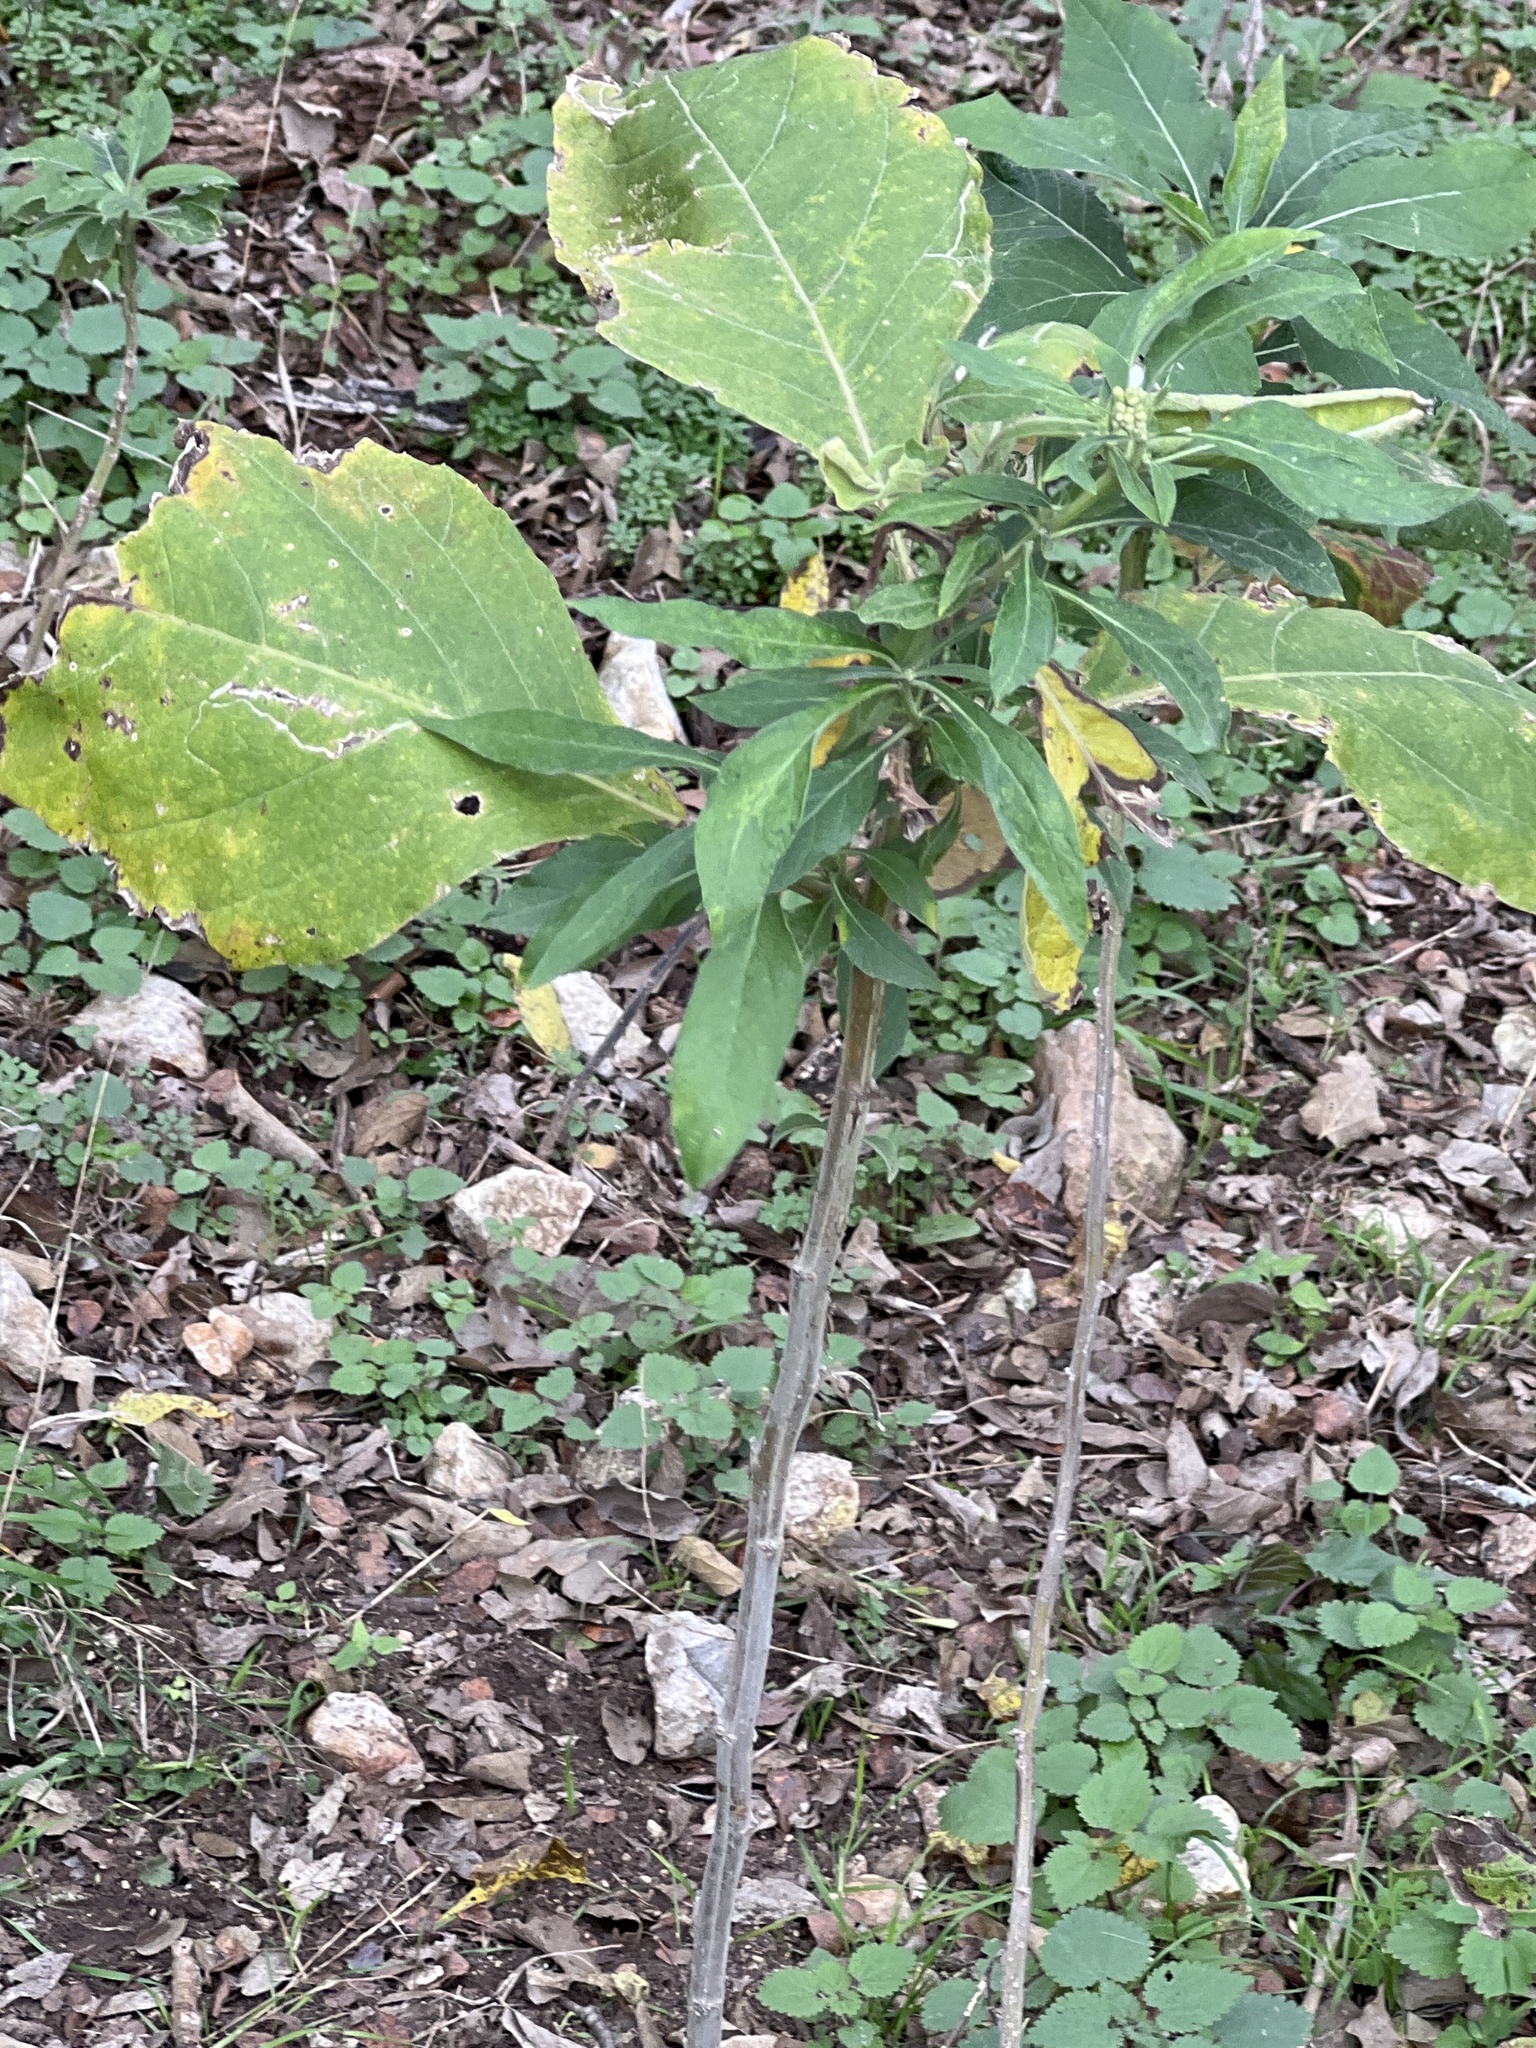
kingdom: Plantae
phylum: Tracheophyta
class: Magnoliopsida
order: Asterales
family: Asteraceae
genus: Verbesina
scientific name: Verbesina virginica
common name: Frostweed
